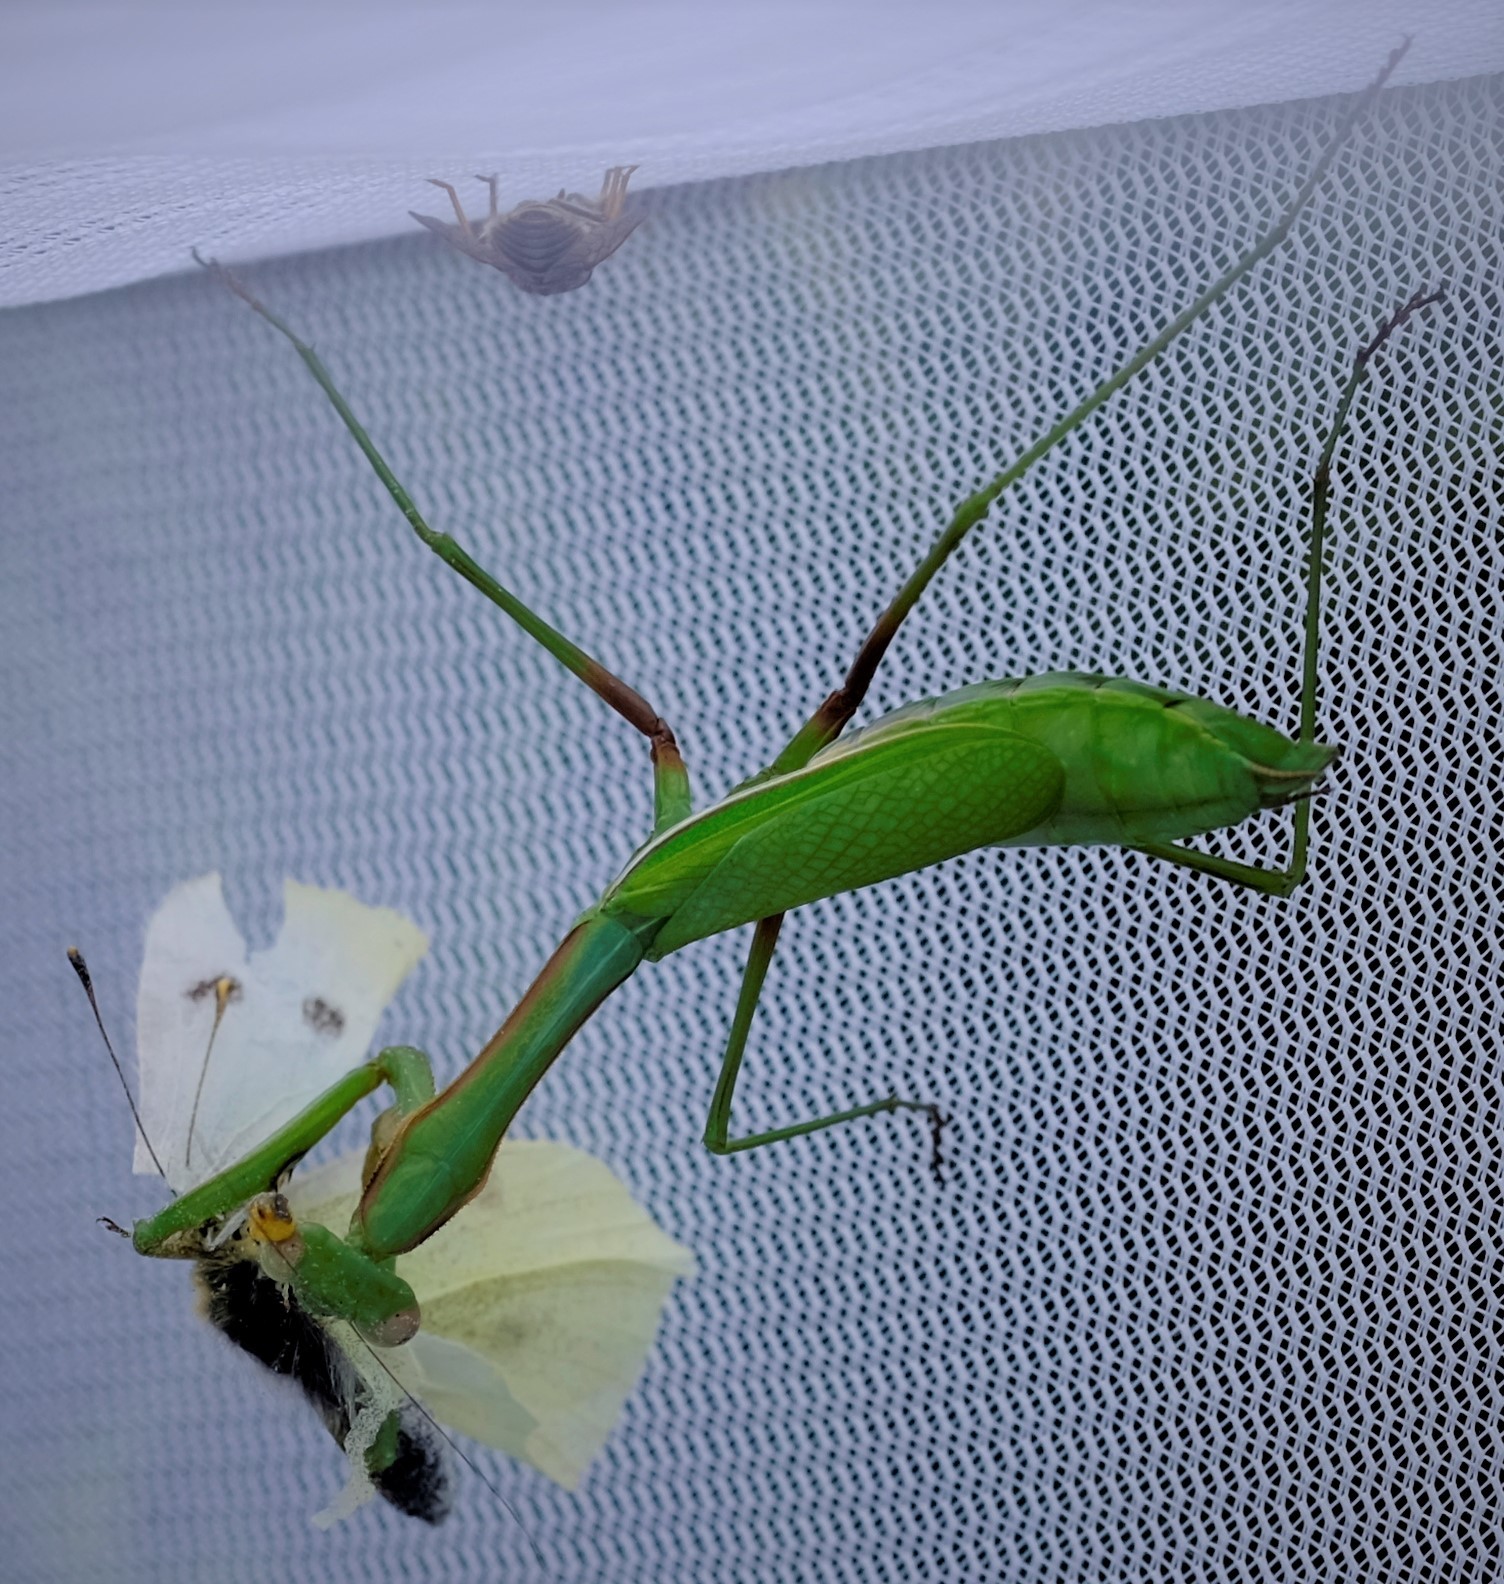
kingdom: Animalia
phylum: Arthropoda
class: Insecta
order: Lepidoptera
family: Pieridae
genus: Pieris
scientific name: Pieris rapae
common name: Small white
